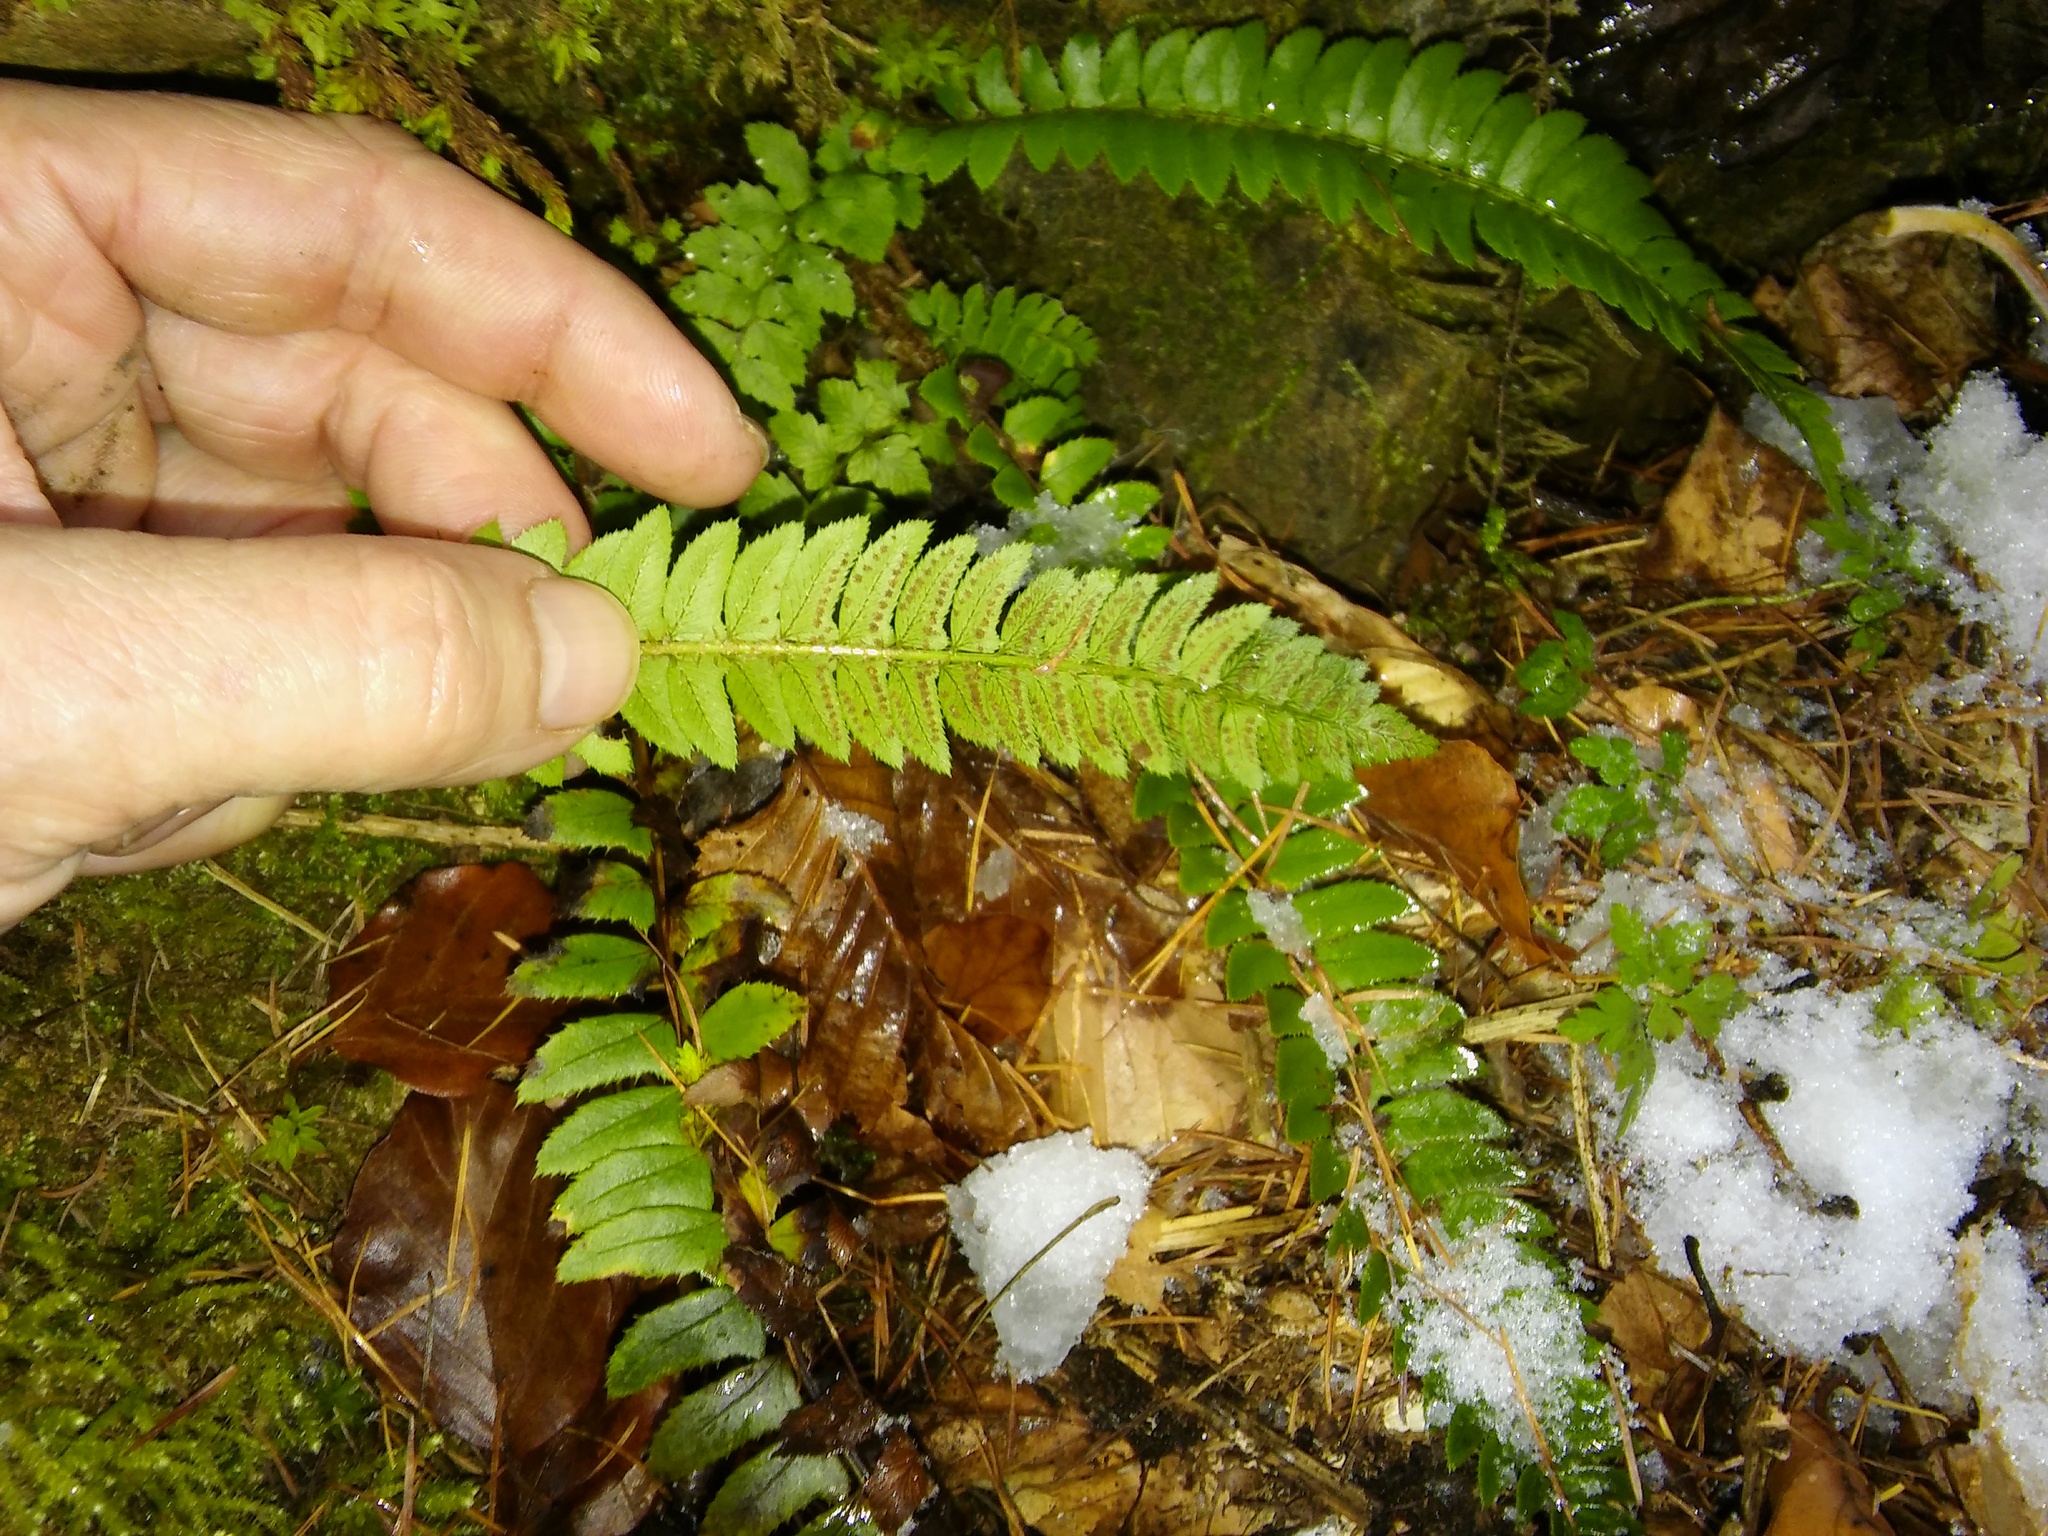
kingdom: Plantae
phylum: Tracheophyta
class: Polypodiopsida
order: Polypodiales
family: Dryopteridaceae
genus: Polystichum
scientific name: Polystichum lonchitis
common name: Holly fern
